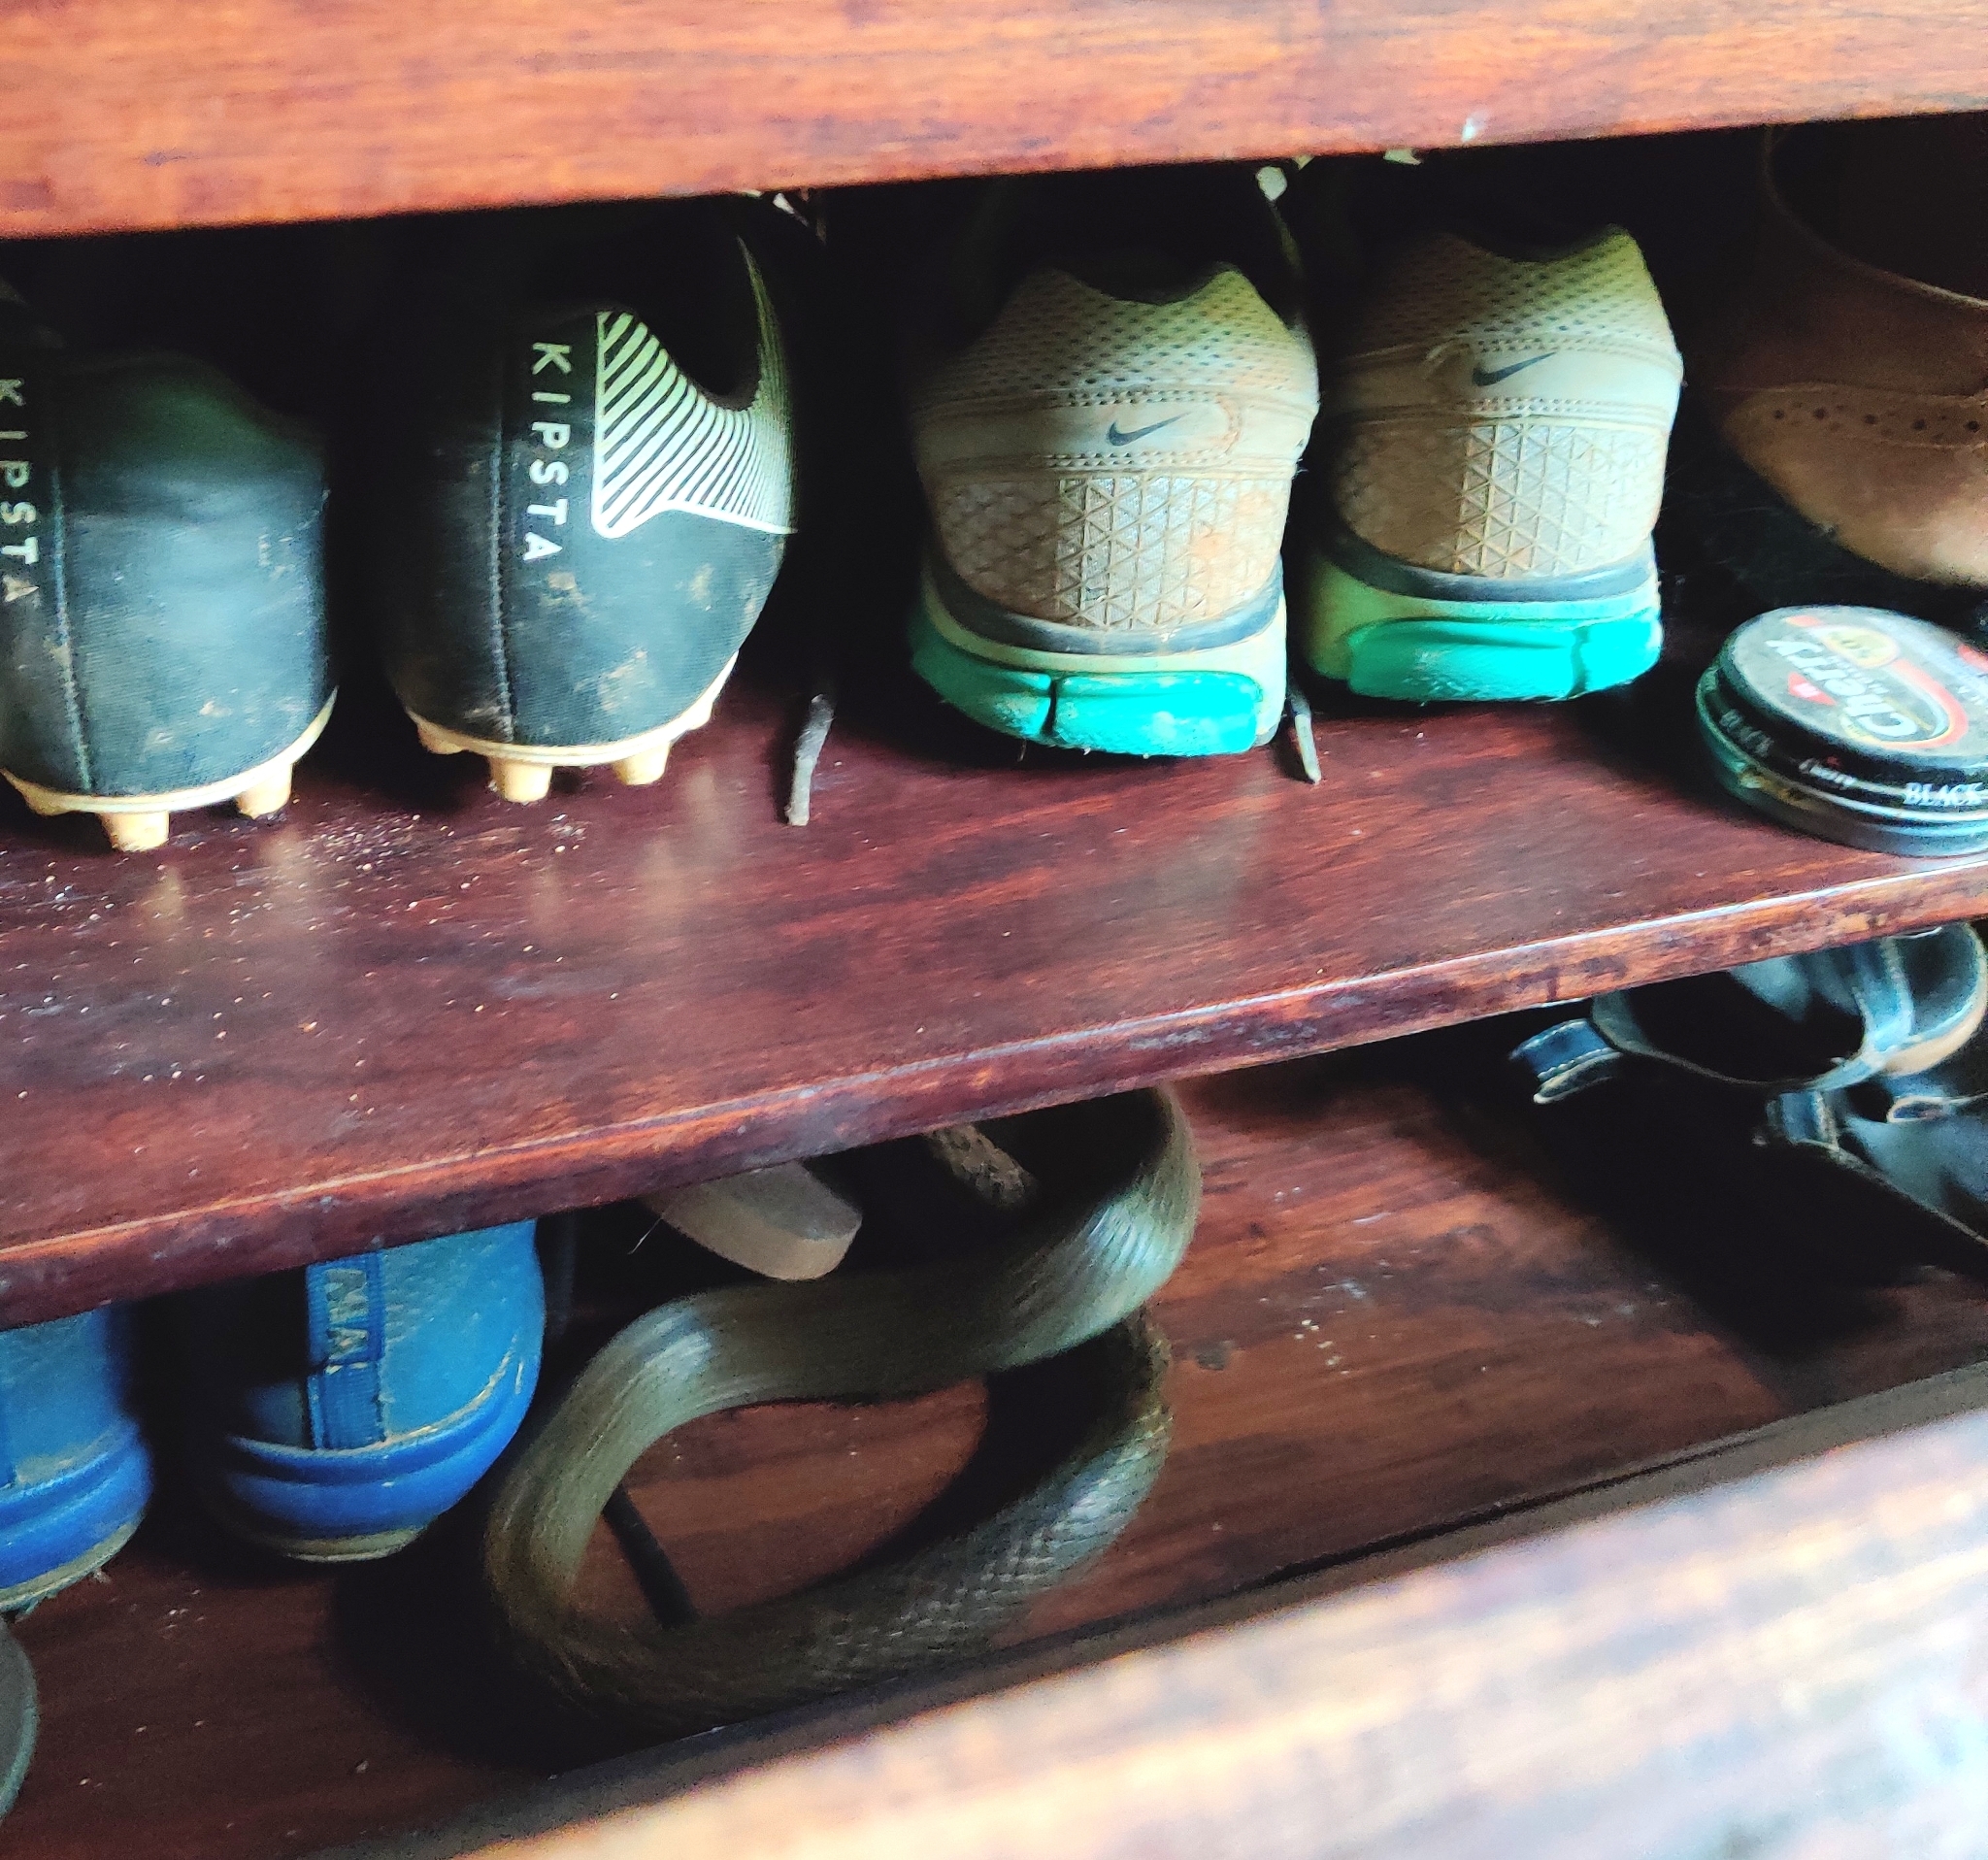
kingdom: Animalia
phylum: Chordata
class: Squamata
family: Colubridae
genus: Ptyas
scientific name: Ptyas mucosa
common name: Oriental ratsnake
